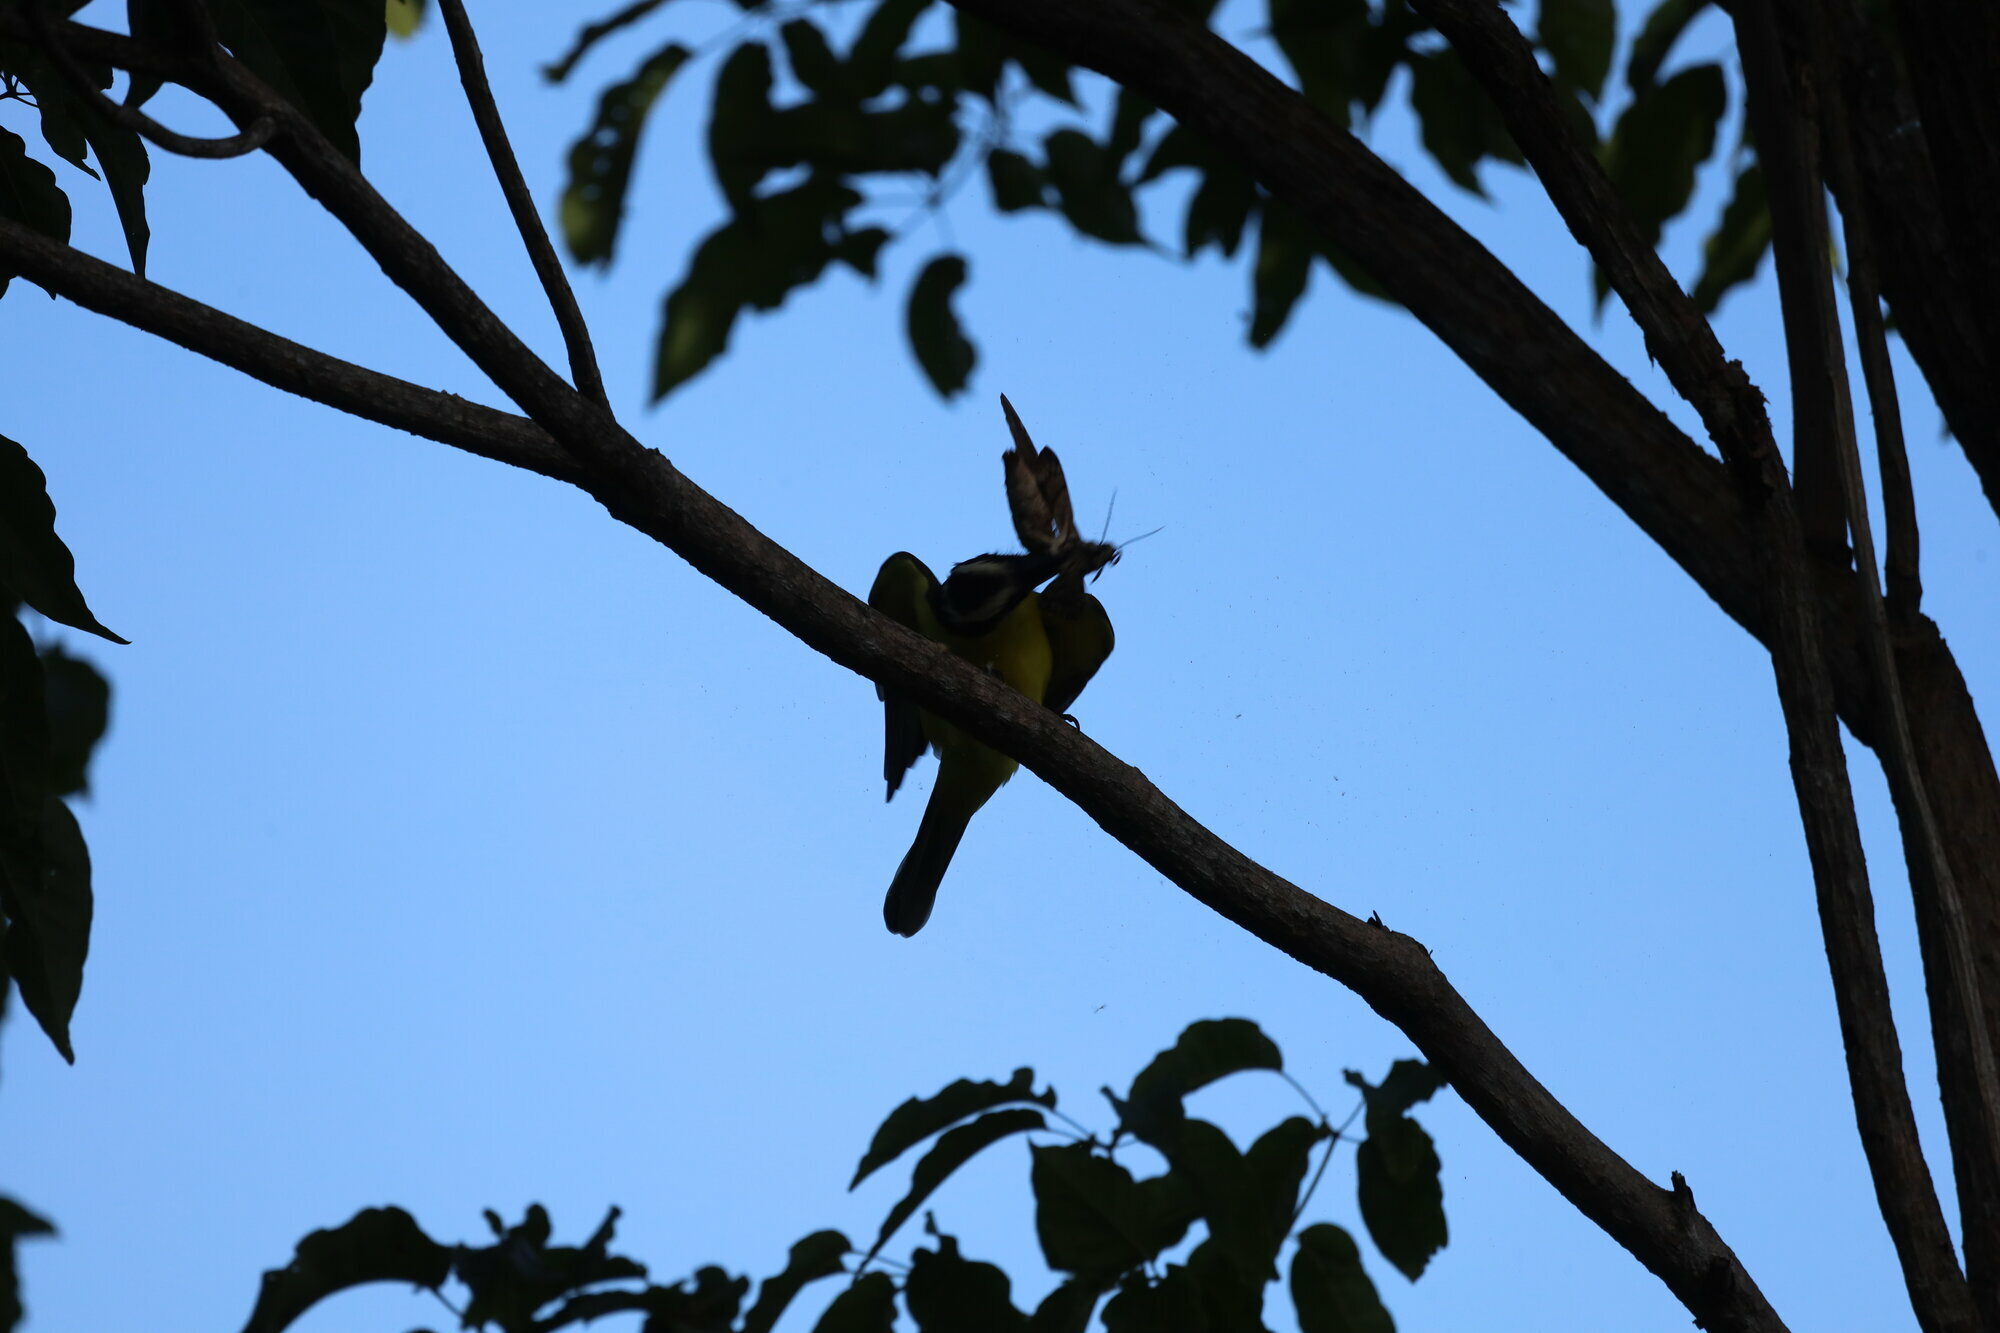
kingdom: Animalia
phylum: Chordata
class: Aves
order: Passeriformes
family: Tyrannidae
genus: Pitangus
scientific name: Pitangus sulphuratus
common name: Great kiskadee
